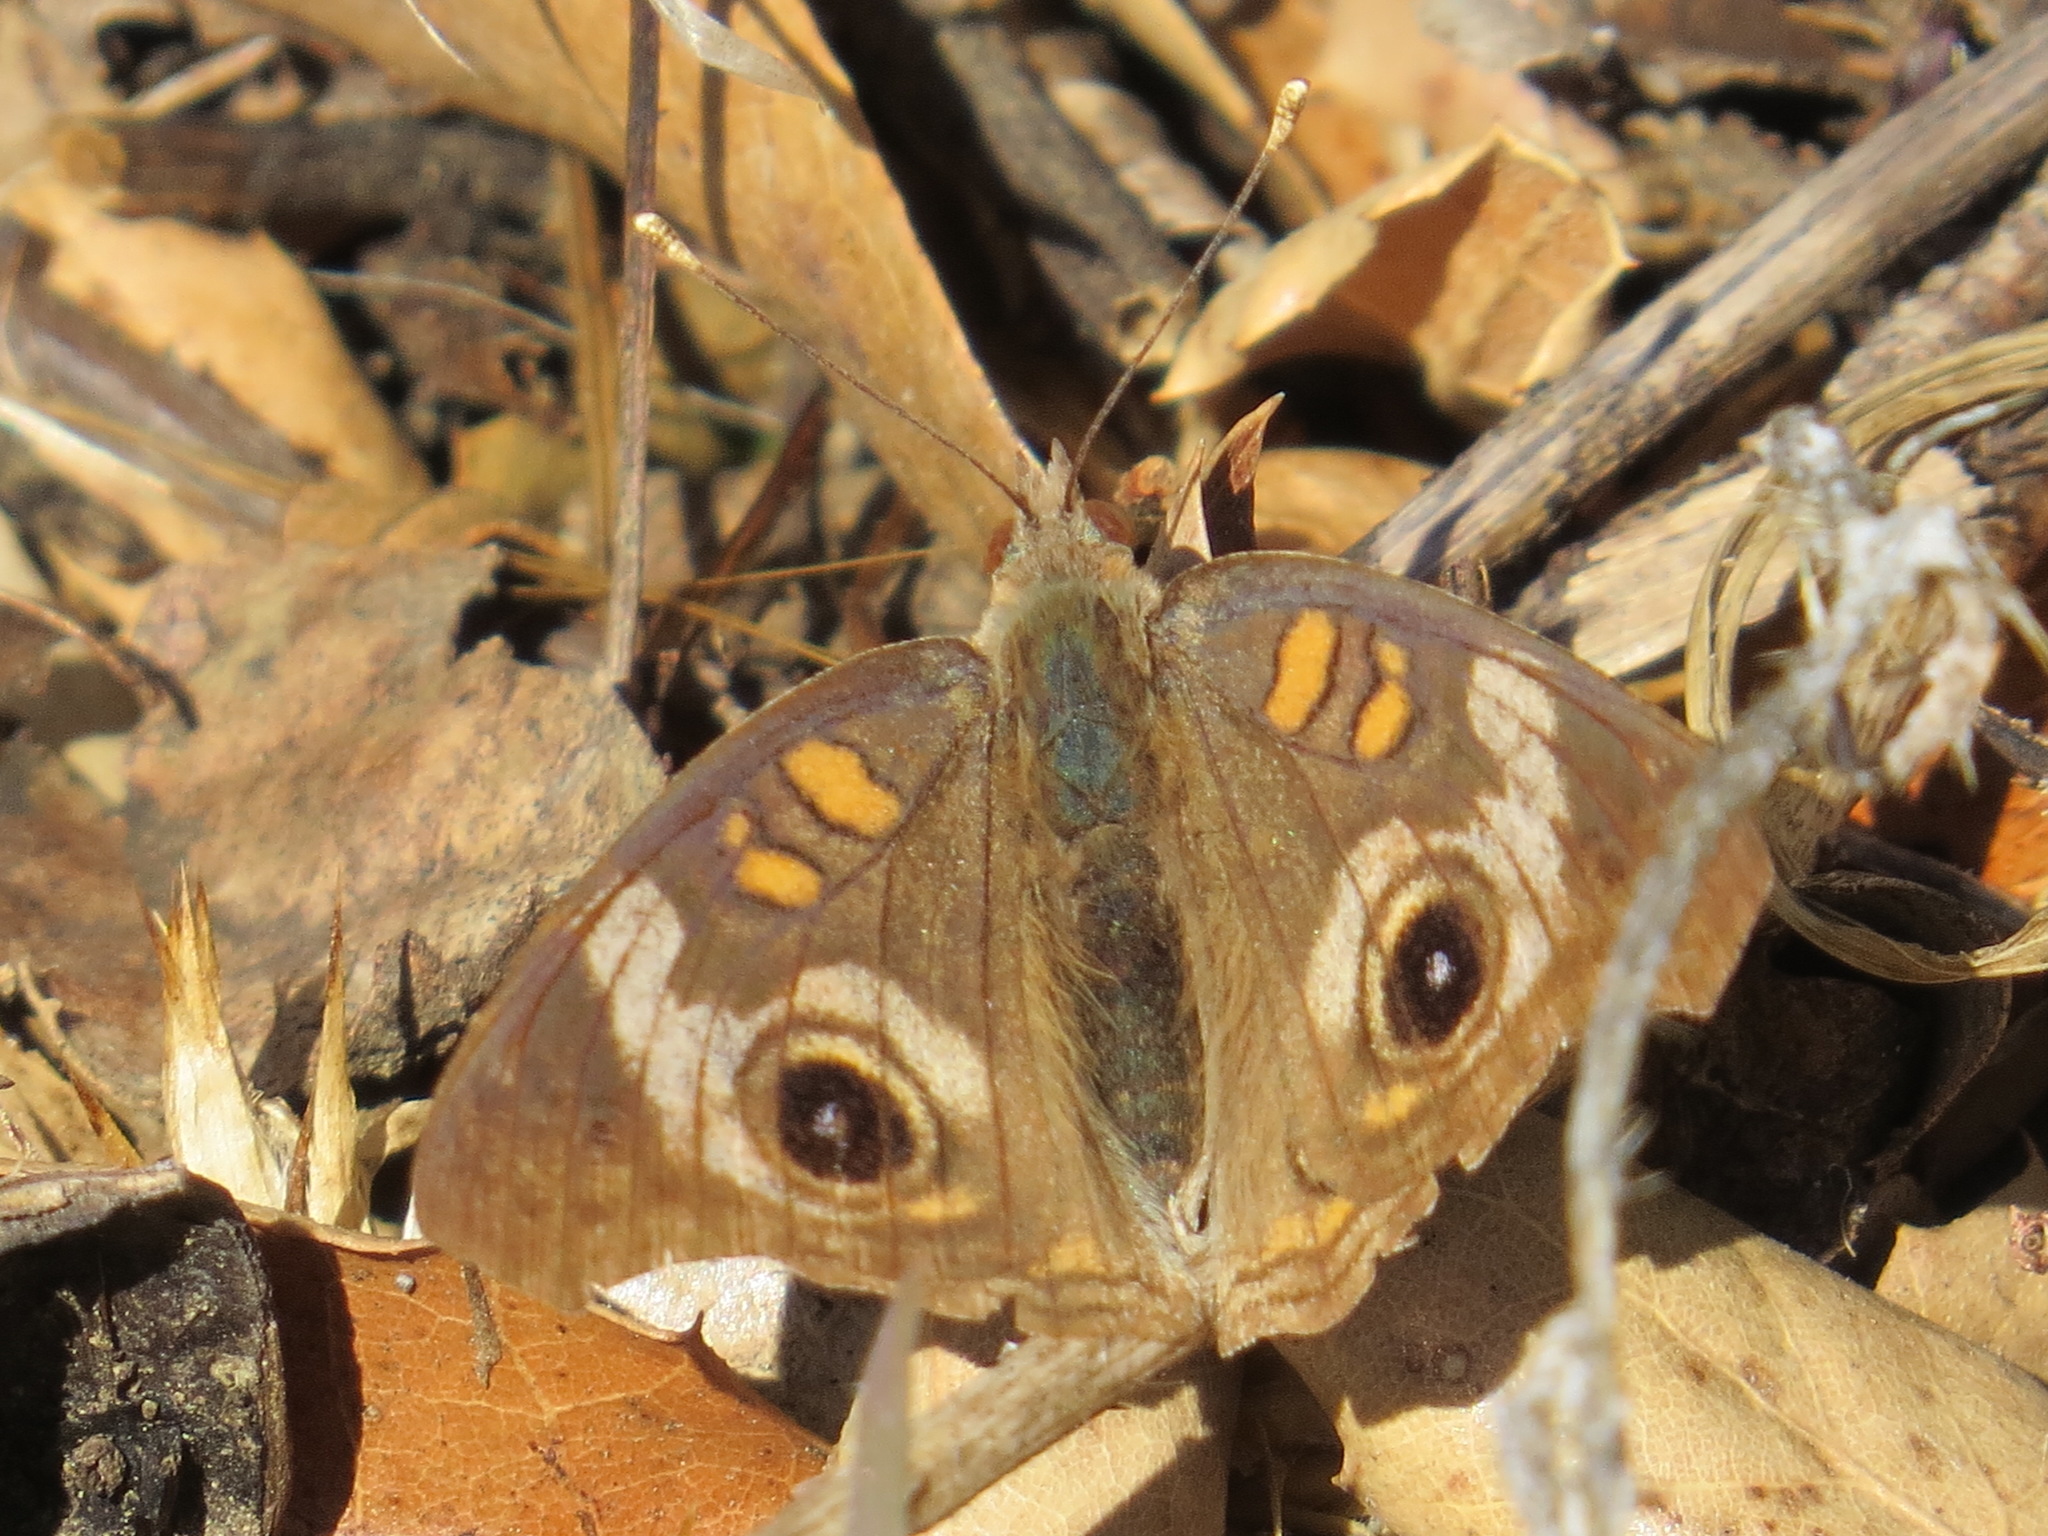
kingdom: Animalia
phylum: Arthropoda
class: Insecta
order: Lepidoptera
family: Nymphalidae
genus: Junonia
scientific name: Junonia grisea
